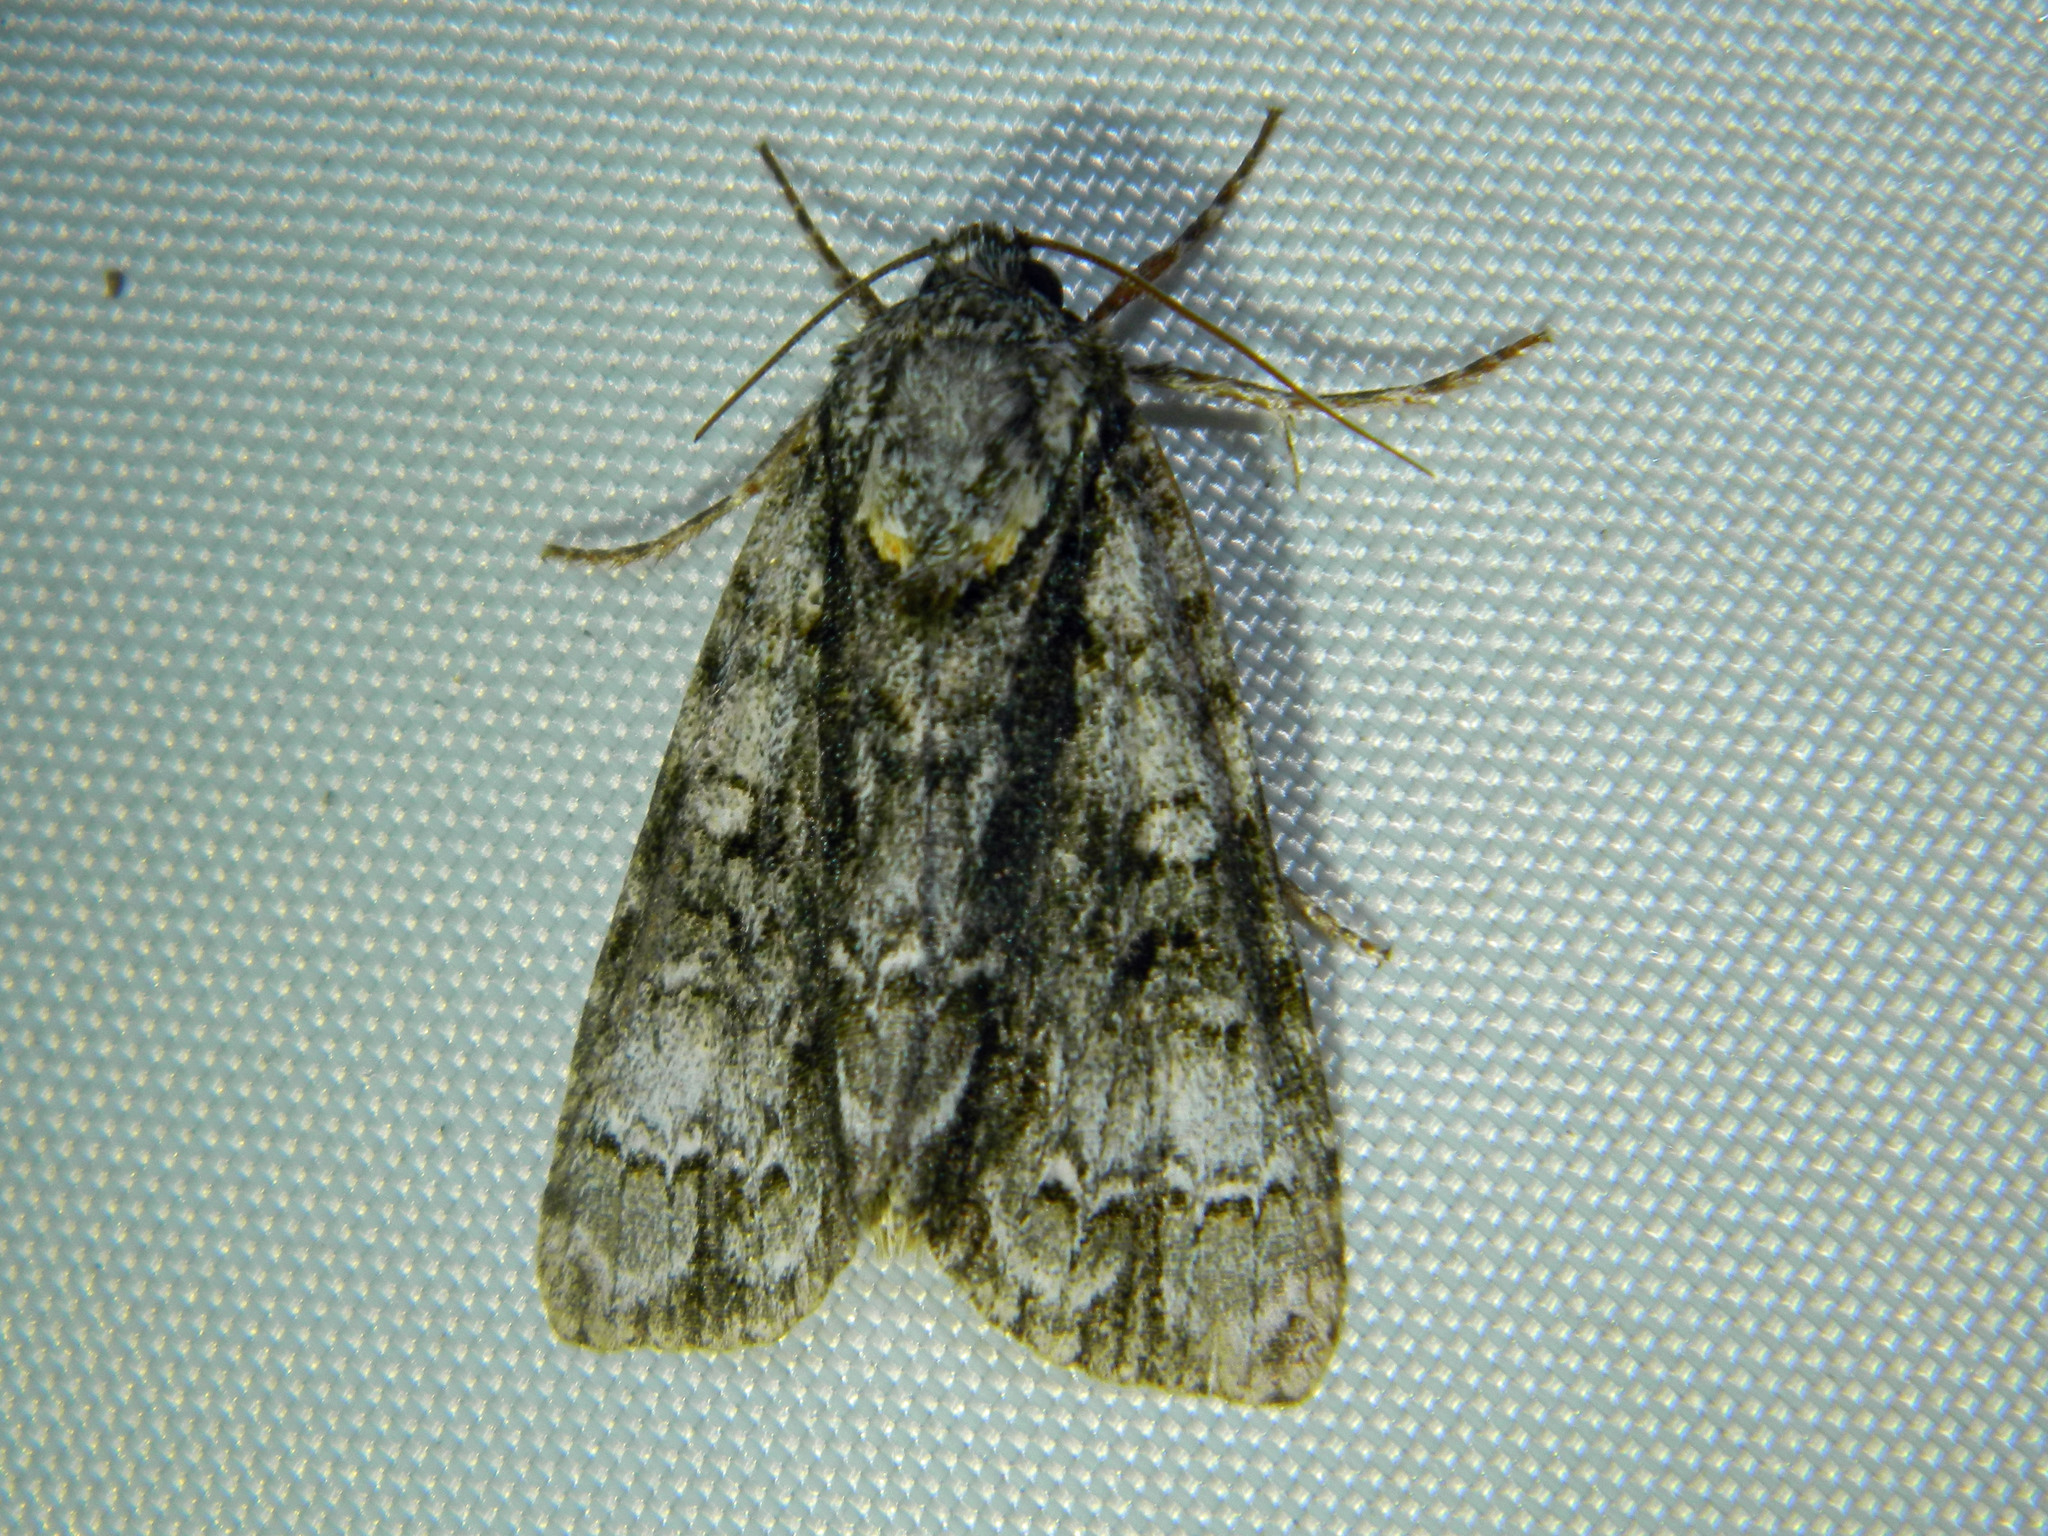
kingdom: Animalia
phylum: Arthropoda
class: Insecta
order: Lepidoptera
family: Noctuidae
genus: Acronicta
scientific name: Acronicta superans
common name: Splendid dagger
